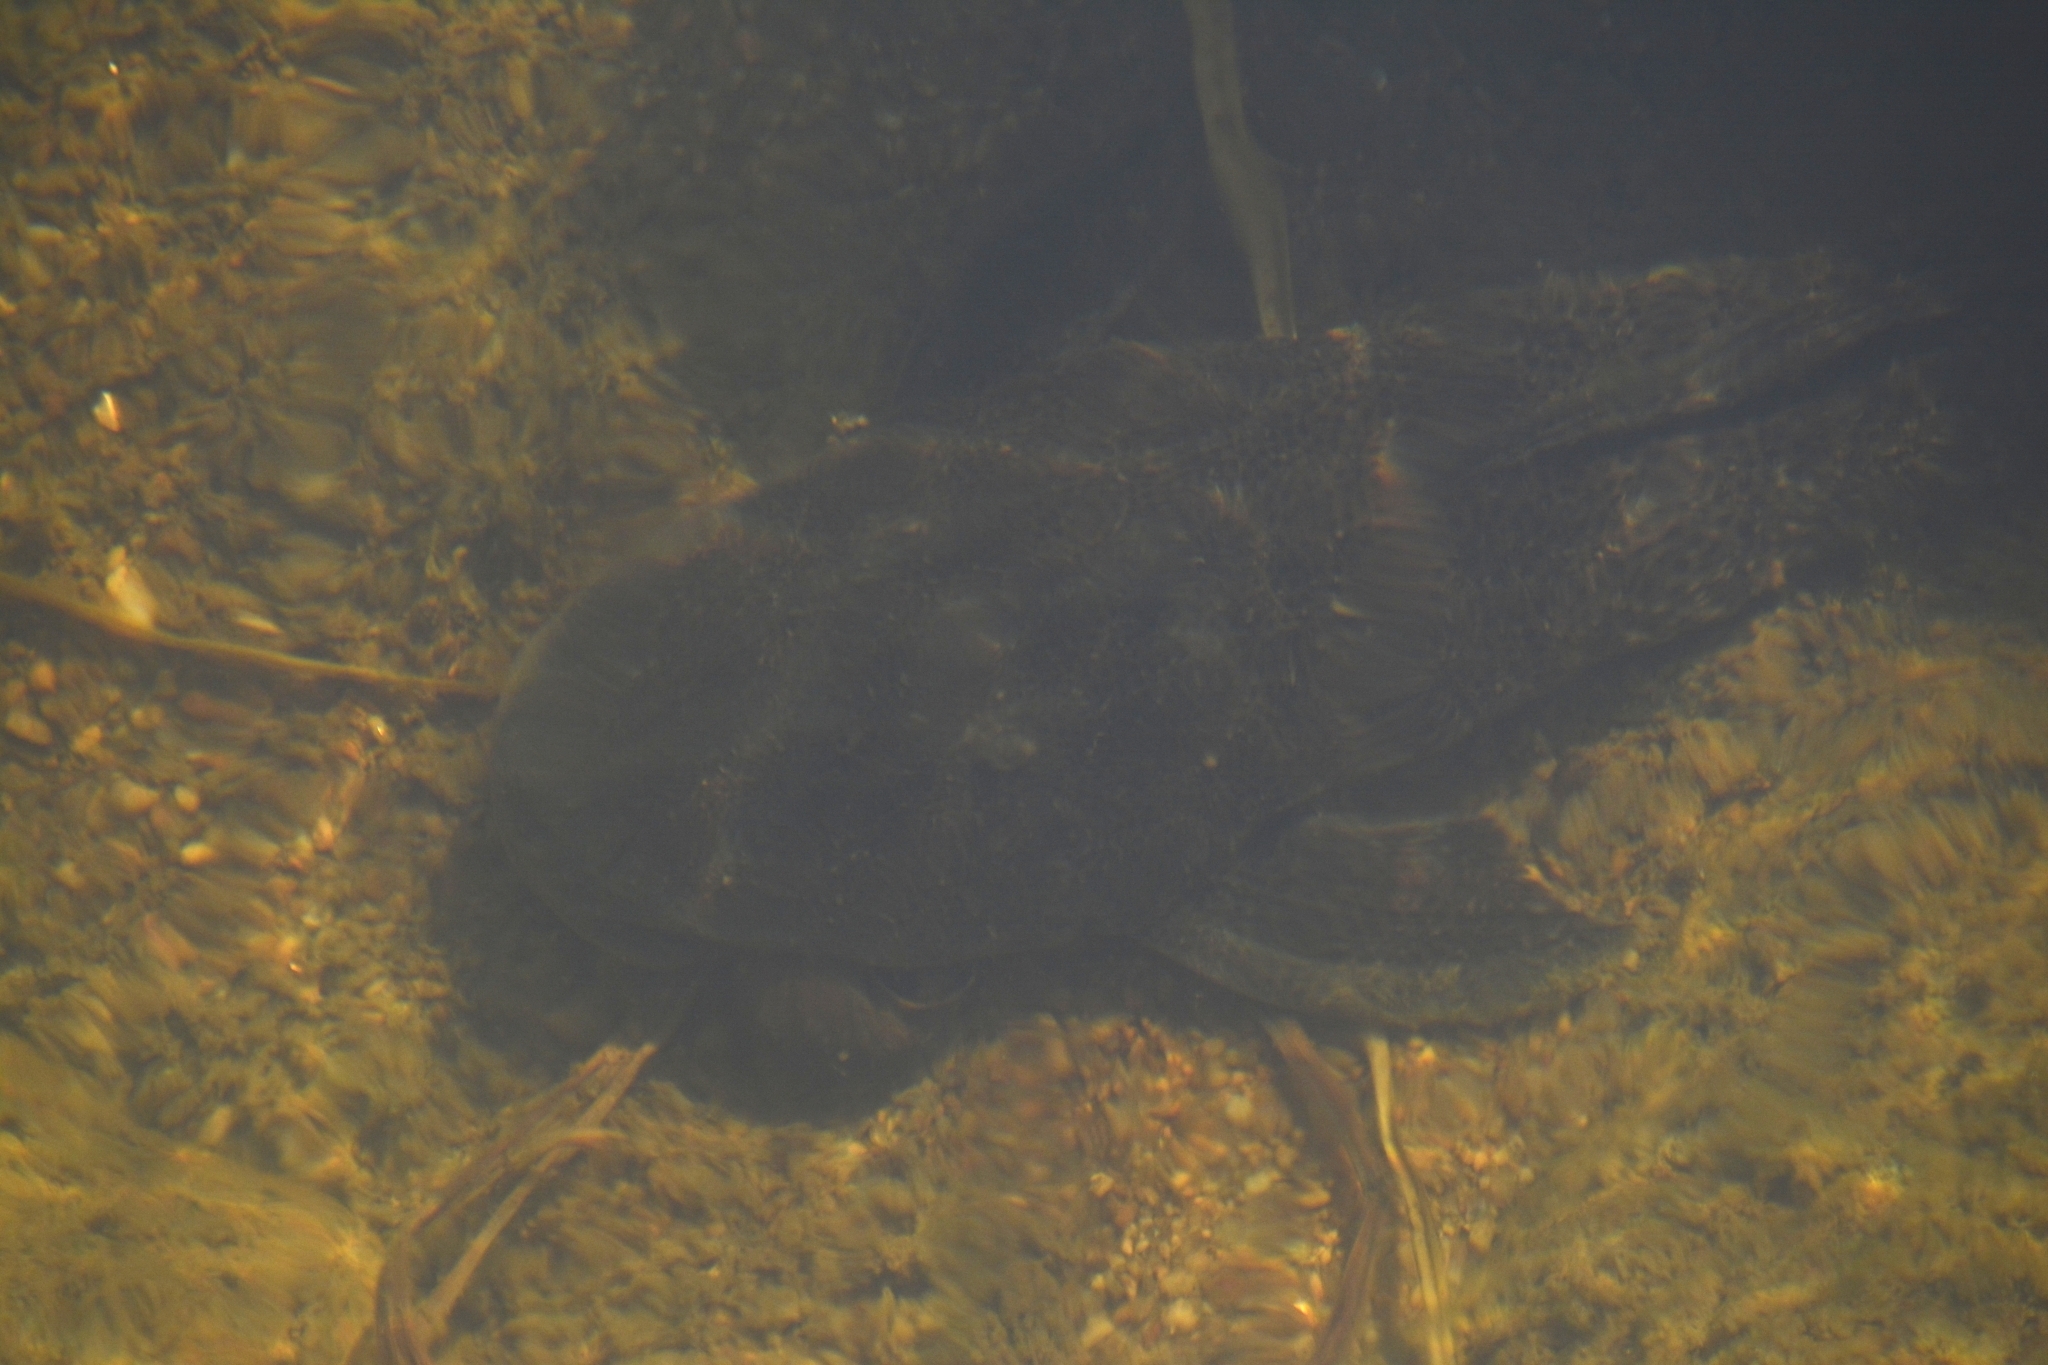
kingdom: Animalia
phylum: Chordata
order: Siluriformes
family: Loricariidae
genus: Hypostomus
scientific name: Hypostomus paranensis
